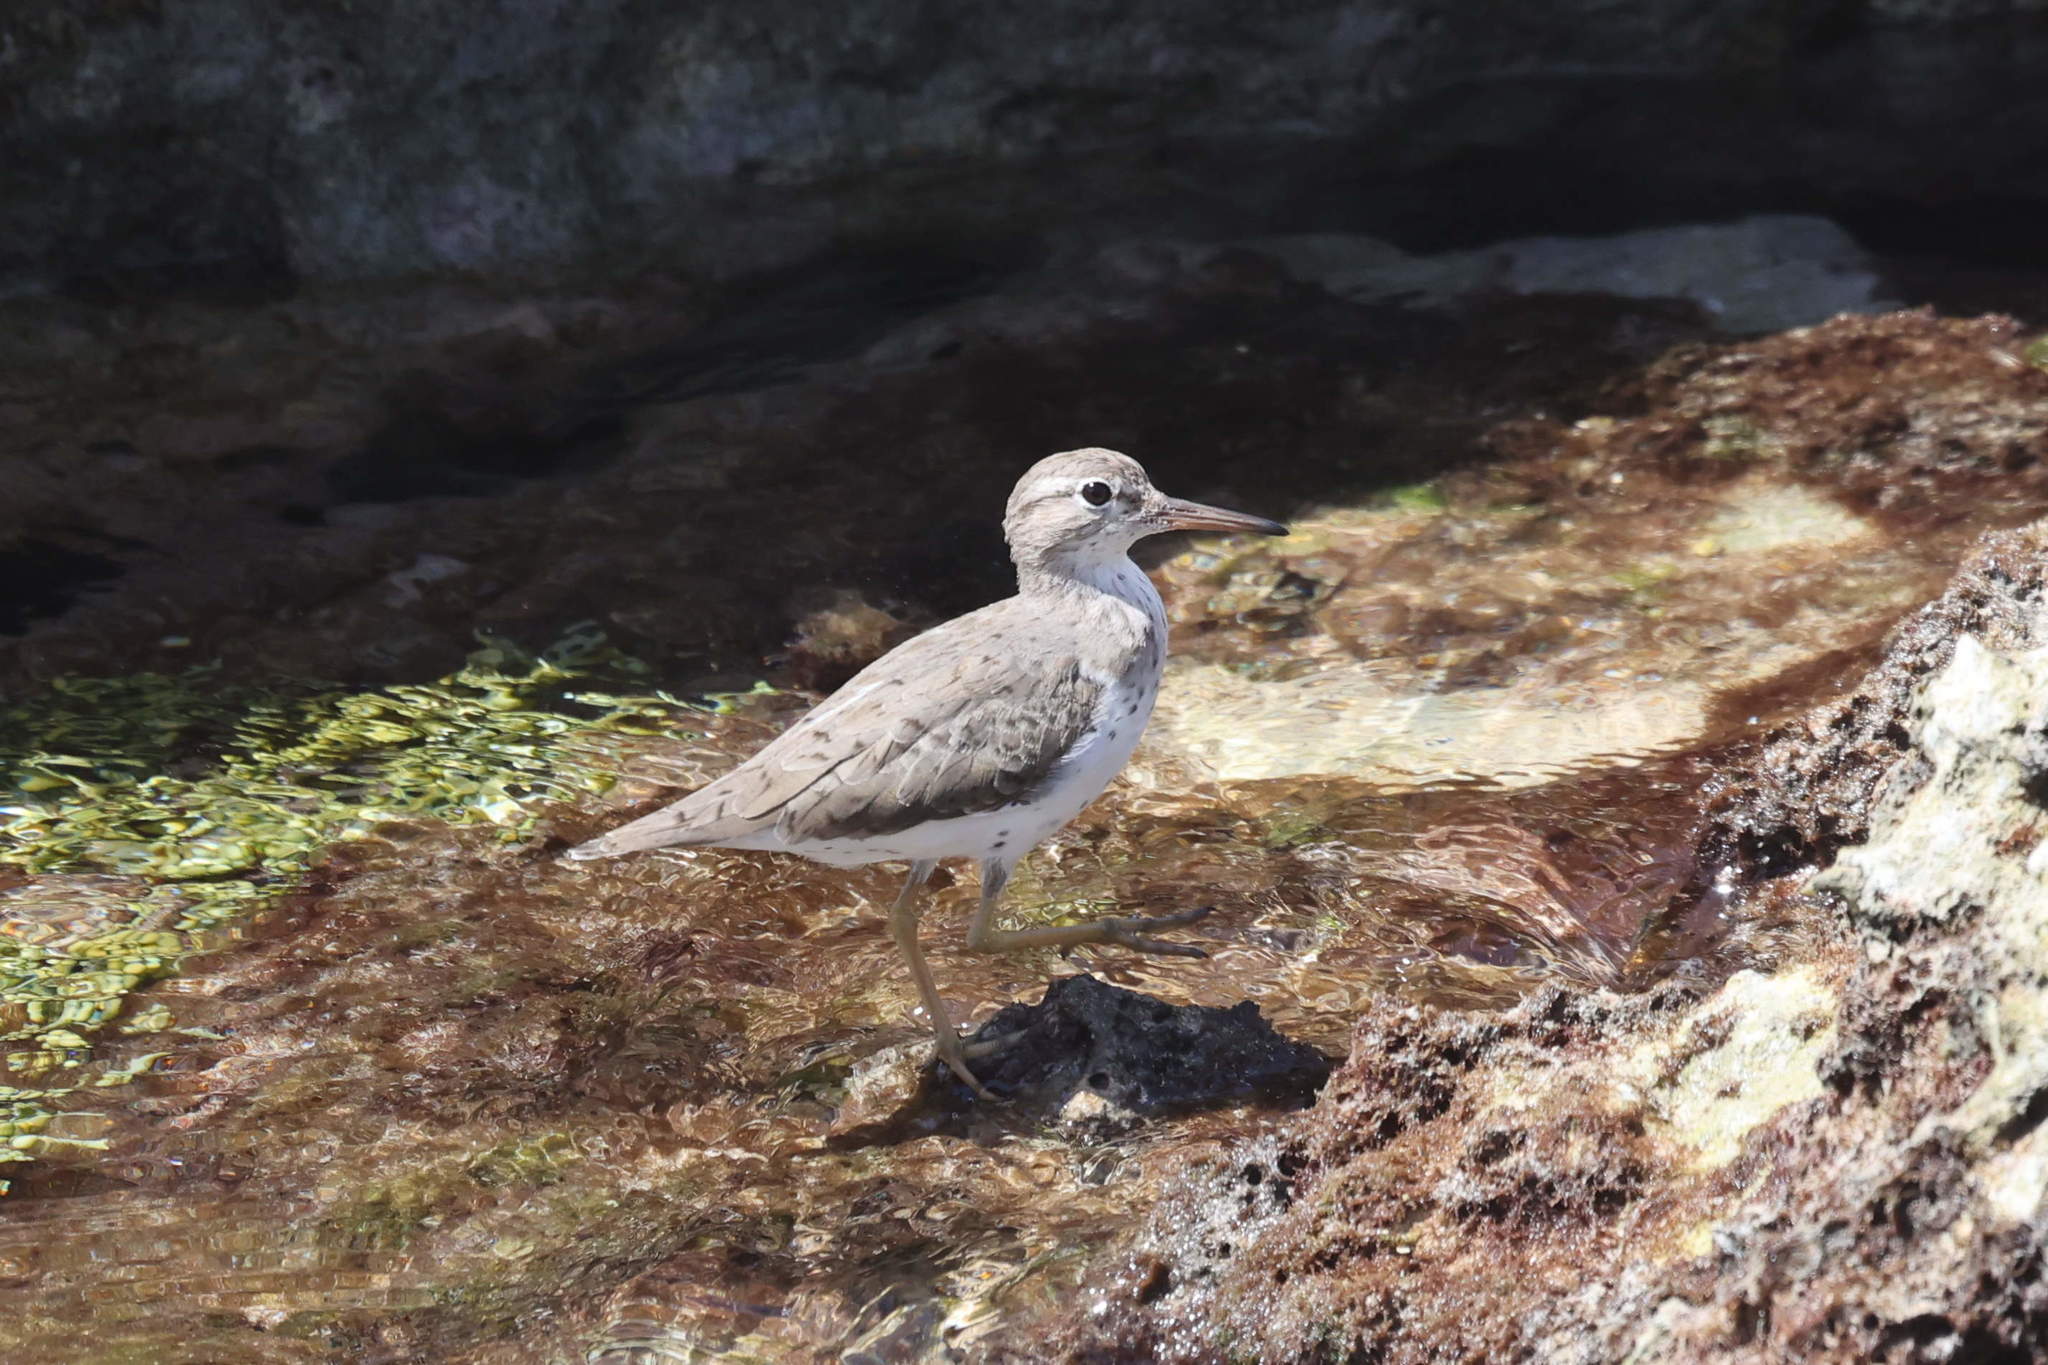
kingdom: Animalia
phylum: Chordata
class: Aves
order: Charadriiformes
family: Scolopacidae
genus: Actitis
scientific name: Actitis macularius
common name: Spotted sandpiper
